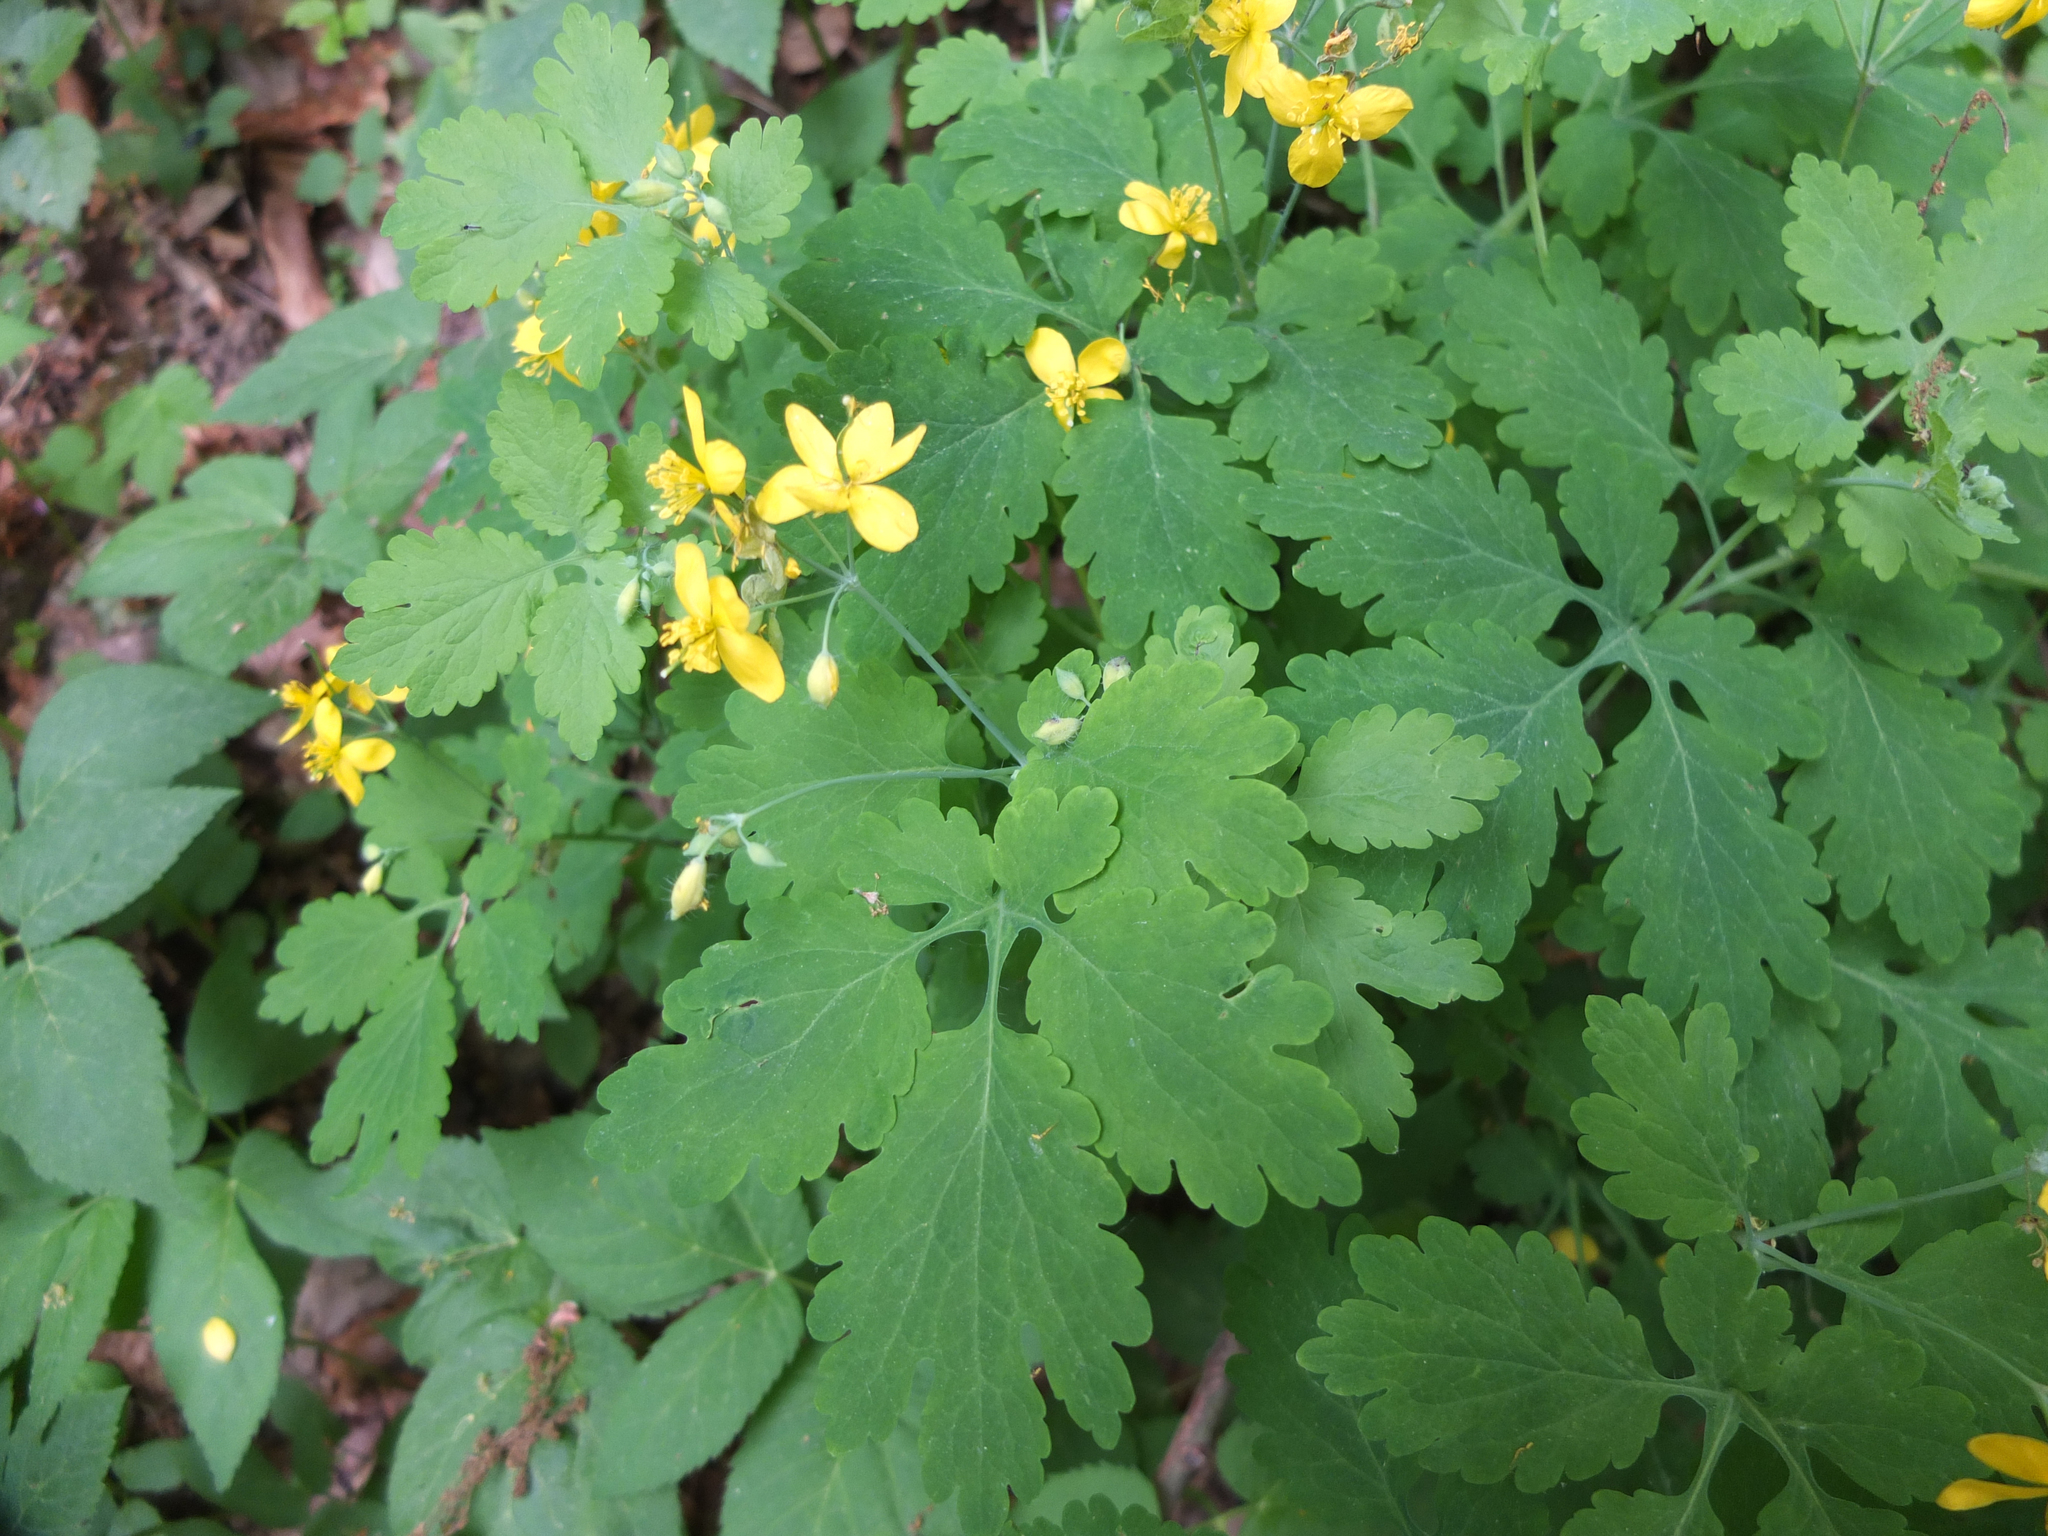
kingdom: Plantae
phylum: Tracheophyta
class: Magnoliopsida
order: Ranunculales
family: Papaveraceae
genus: Chelidonium
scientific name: Chelidonium majus
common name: Greater celandine
